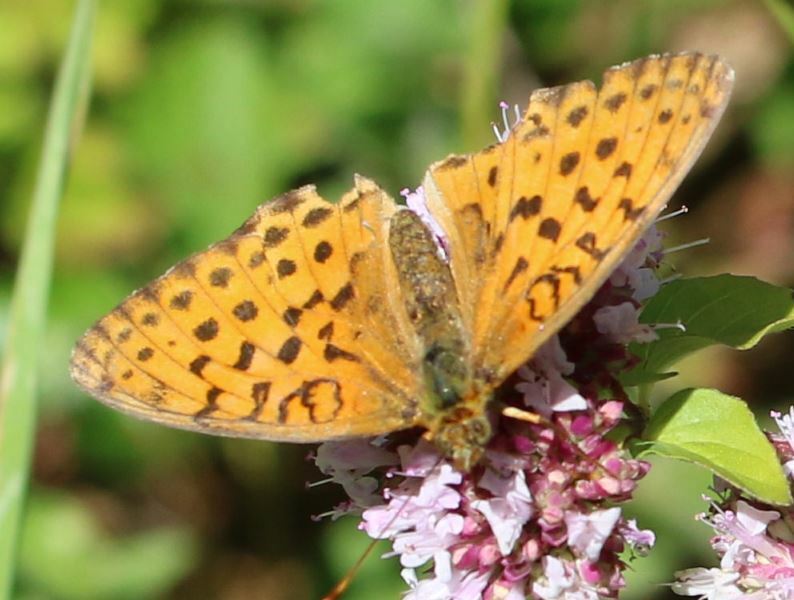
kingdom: Animalia
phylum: Arthropoda
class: Insecta
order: Lepidoptera
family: Nymphalidae
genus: Brenthis
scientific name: Brenthis daphne
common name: Marbled fritillary
